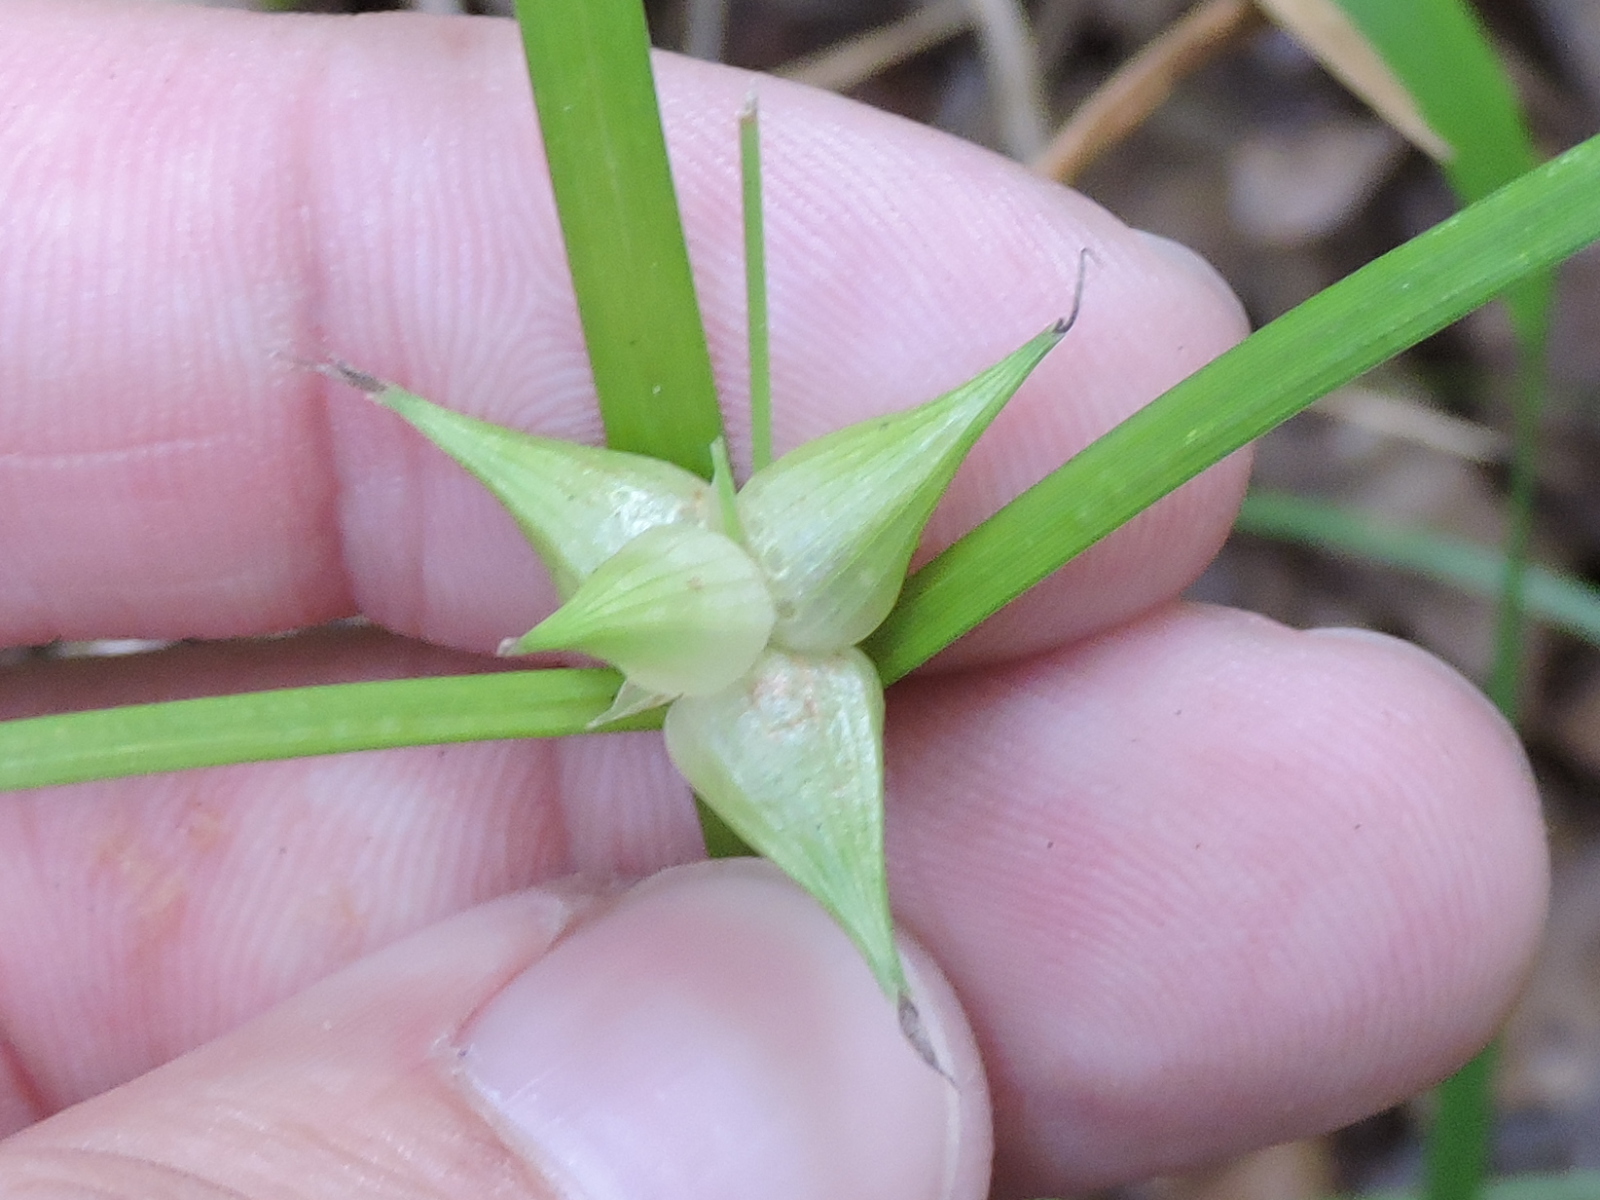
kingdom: Plantae
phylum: Tracheophyta
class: Liliopsida
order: Poales
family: Cyperaceae
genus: Carex
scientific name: Carex intumescens
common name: Greater bladder sedge
